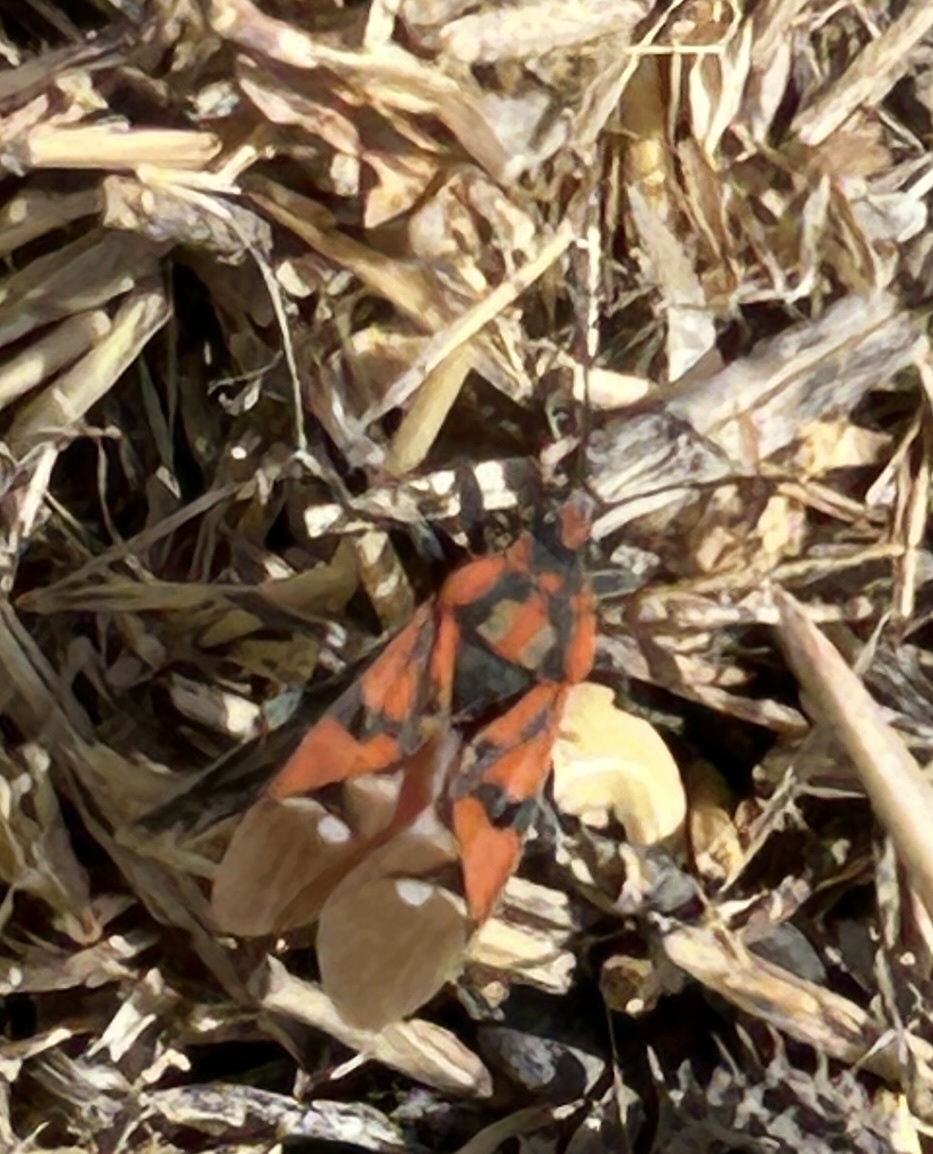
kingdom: Animalia
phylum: Arthropoda
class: Insecta
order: Hemiptera
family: Lygaeidae
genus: Spilostethus
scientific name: Spilostethus pandurus
